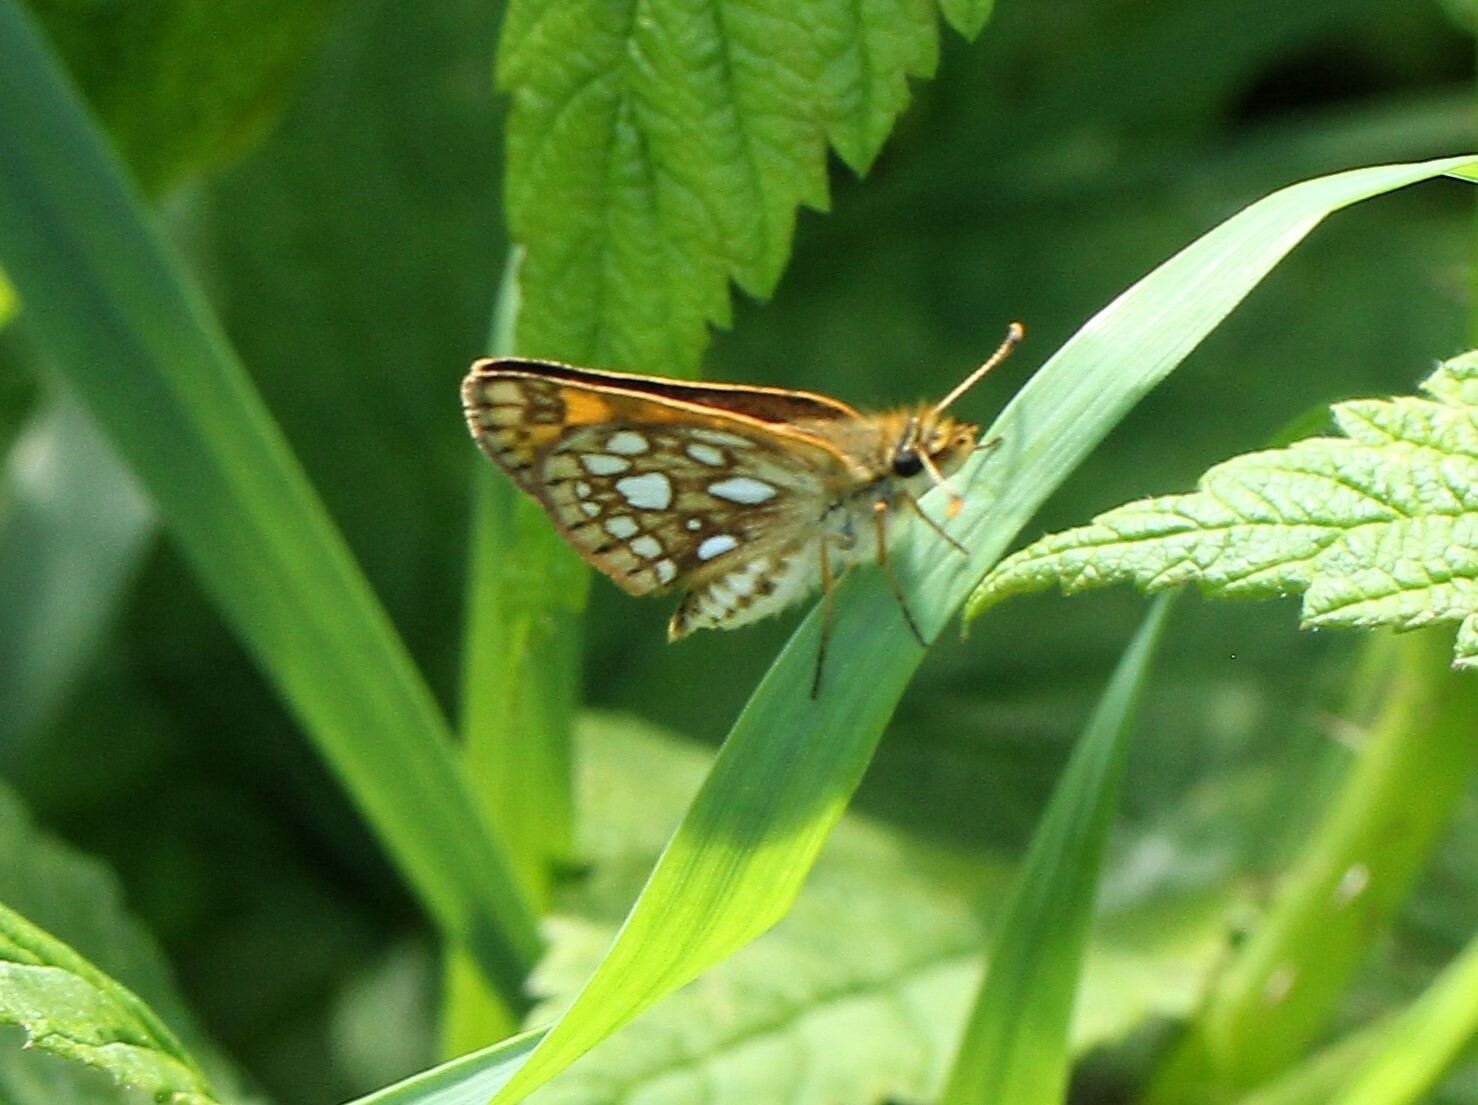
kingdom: Animalia
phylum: Arthropoda
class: Insecta
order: Lepidoptera
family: Hesperiidae
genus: Carterocephalus
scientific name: Carterocephalus mandan
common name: Arctic skipperling
